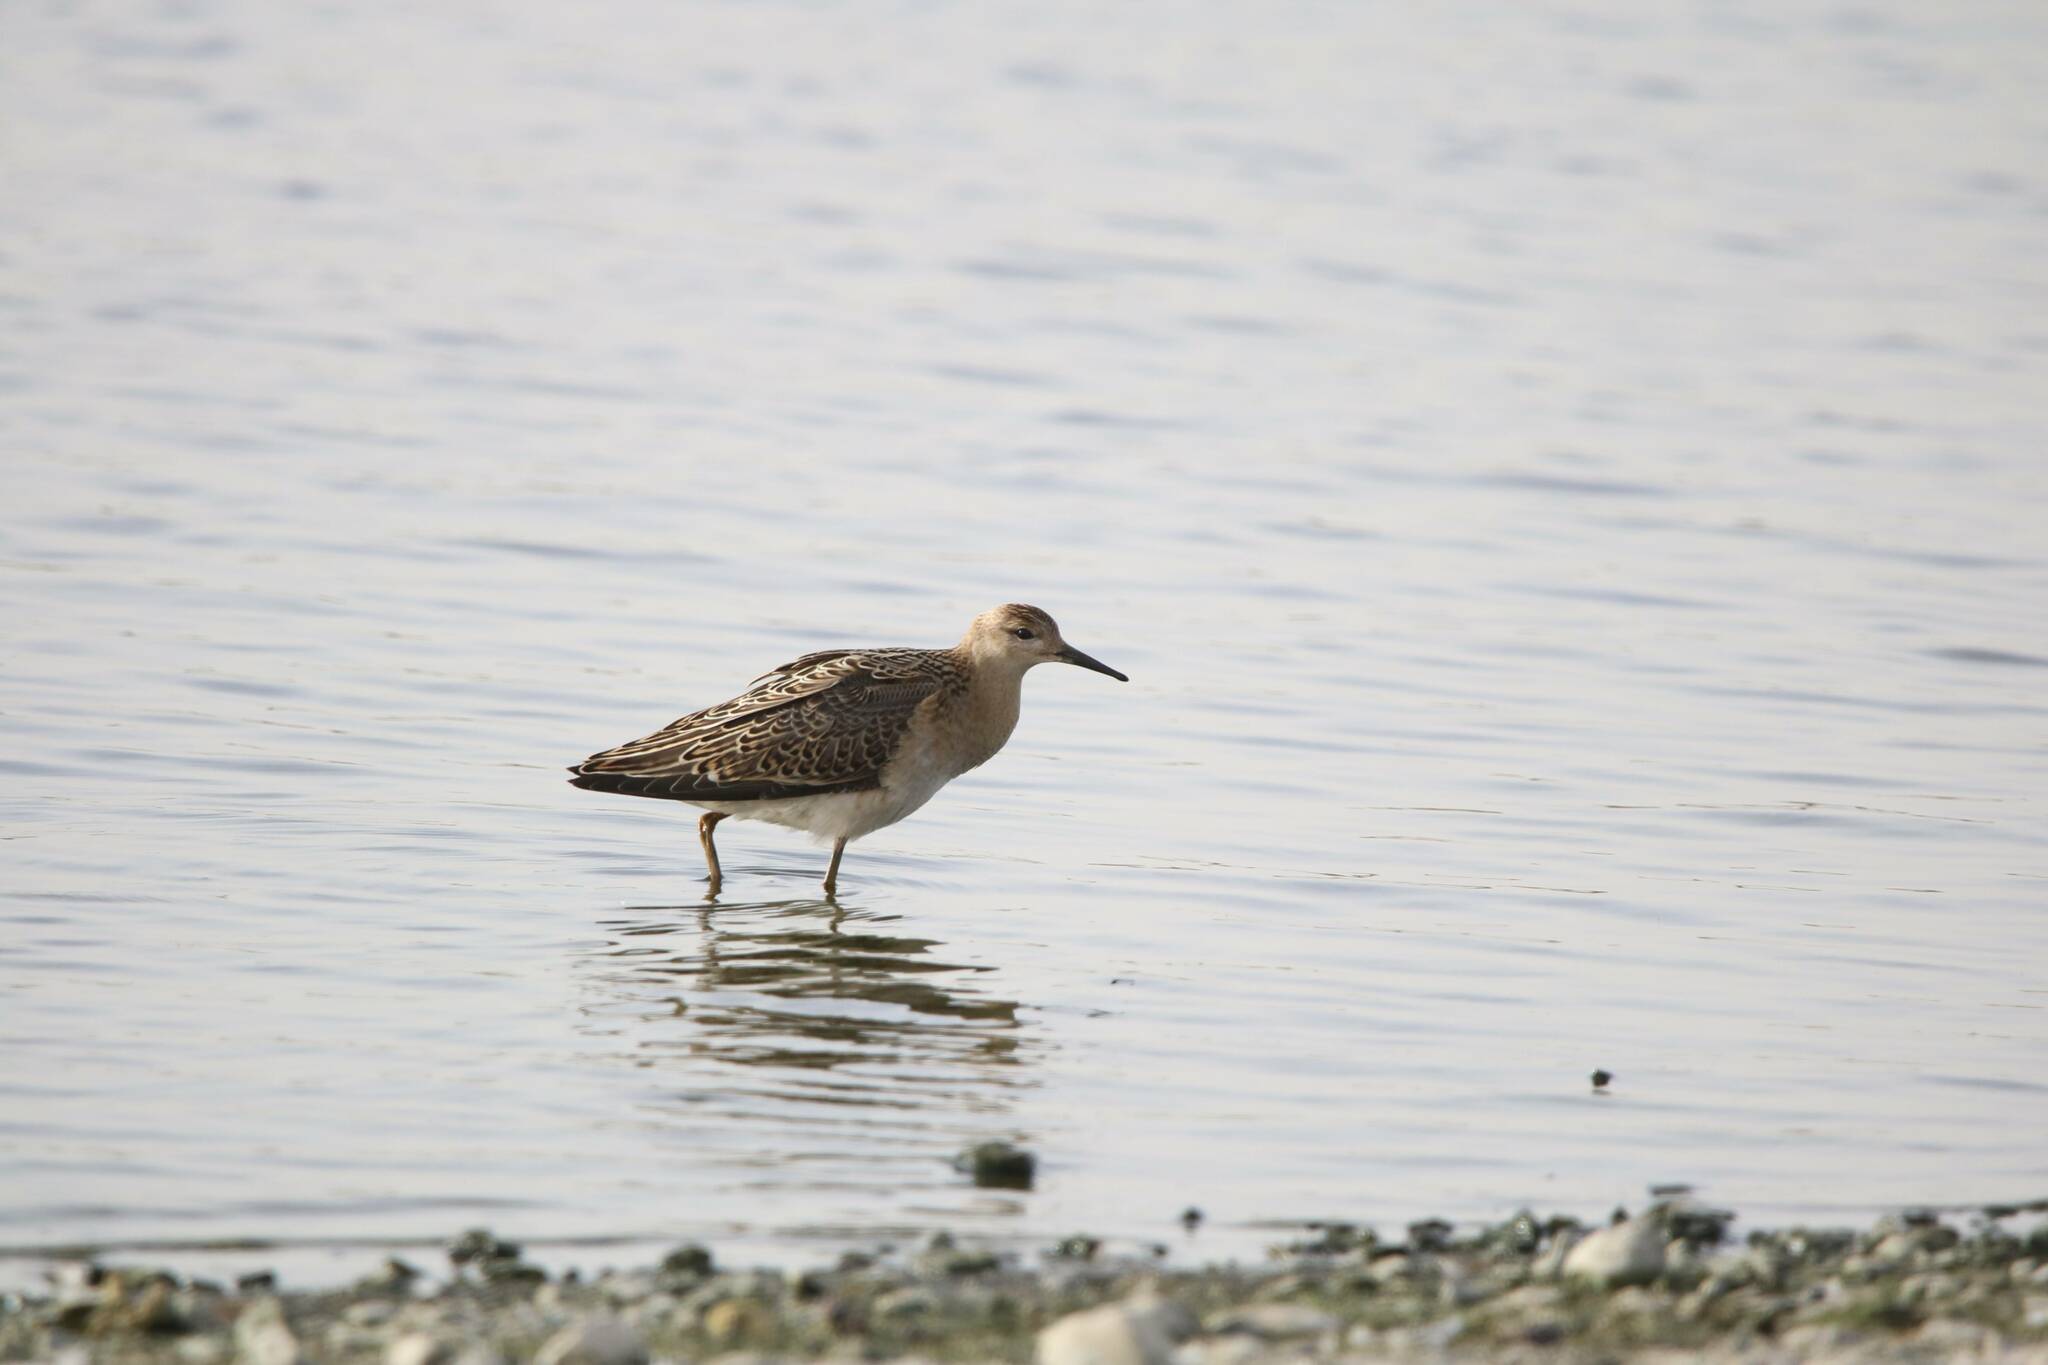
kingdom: Animalia
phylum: Chordata
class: Aves
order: Charadriiformes
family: Scolopacidae
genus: Calidris
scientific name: Calidris pugnax
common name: Ruff
